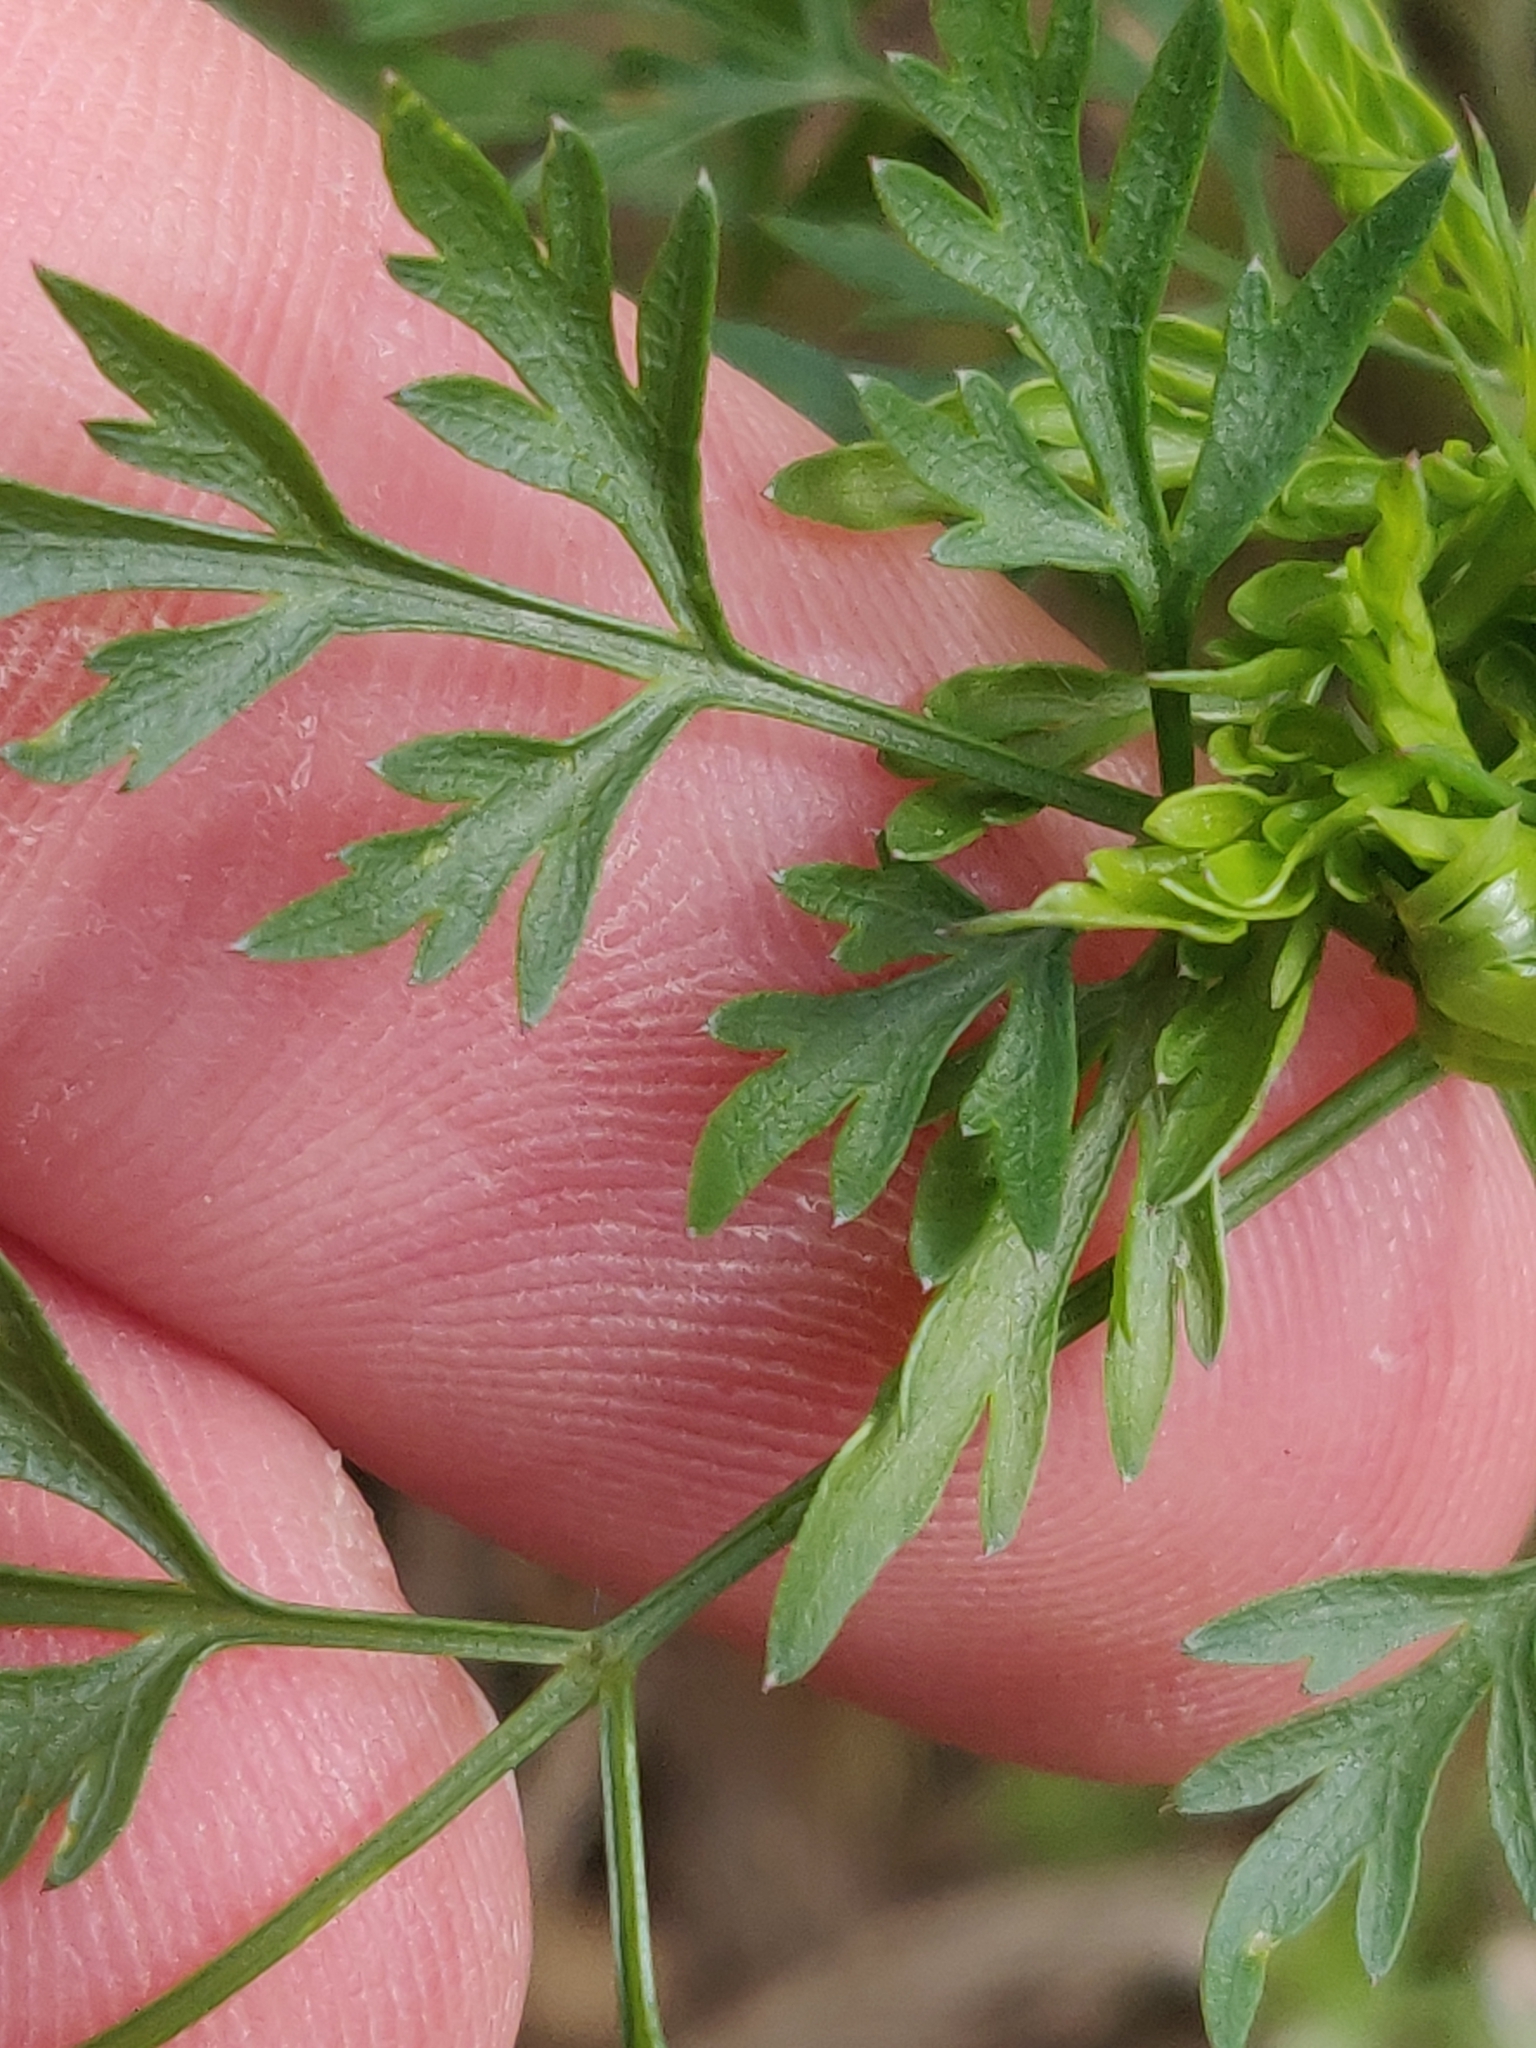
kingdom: Plantae
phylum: Tracheophyta
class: Magnoliopsida
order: Apiales
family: Apiaceae
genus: Aethusa
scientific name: Aethusa cynapium
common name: Fool's parsley
